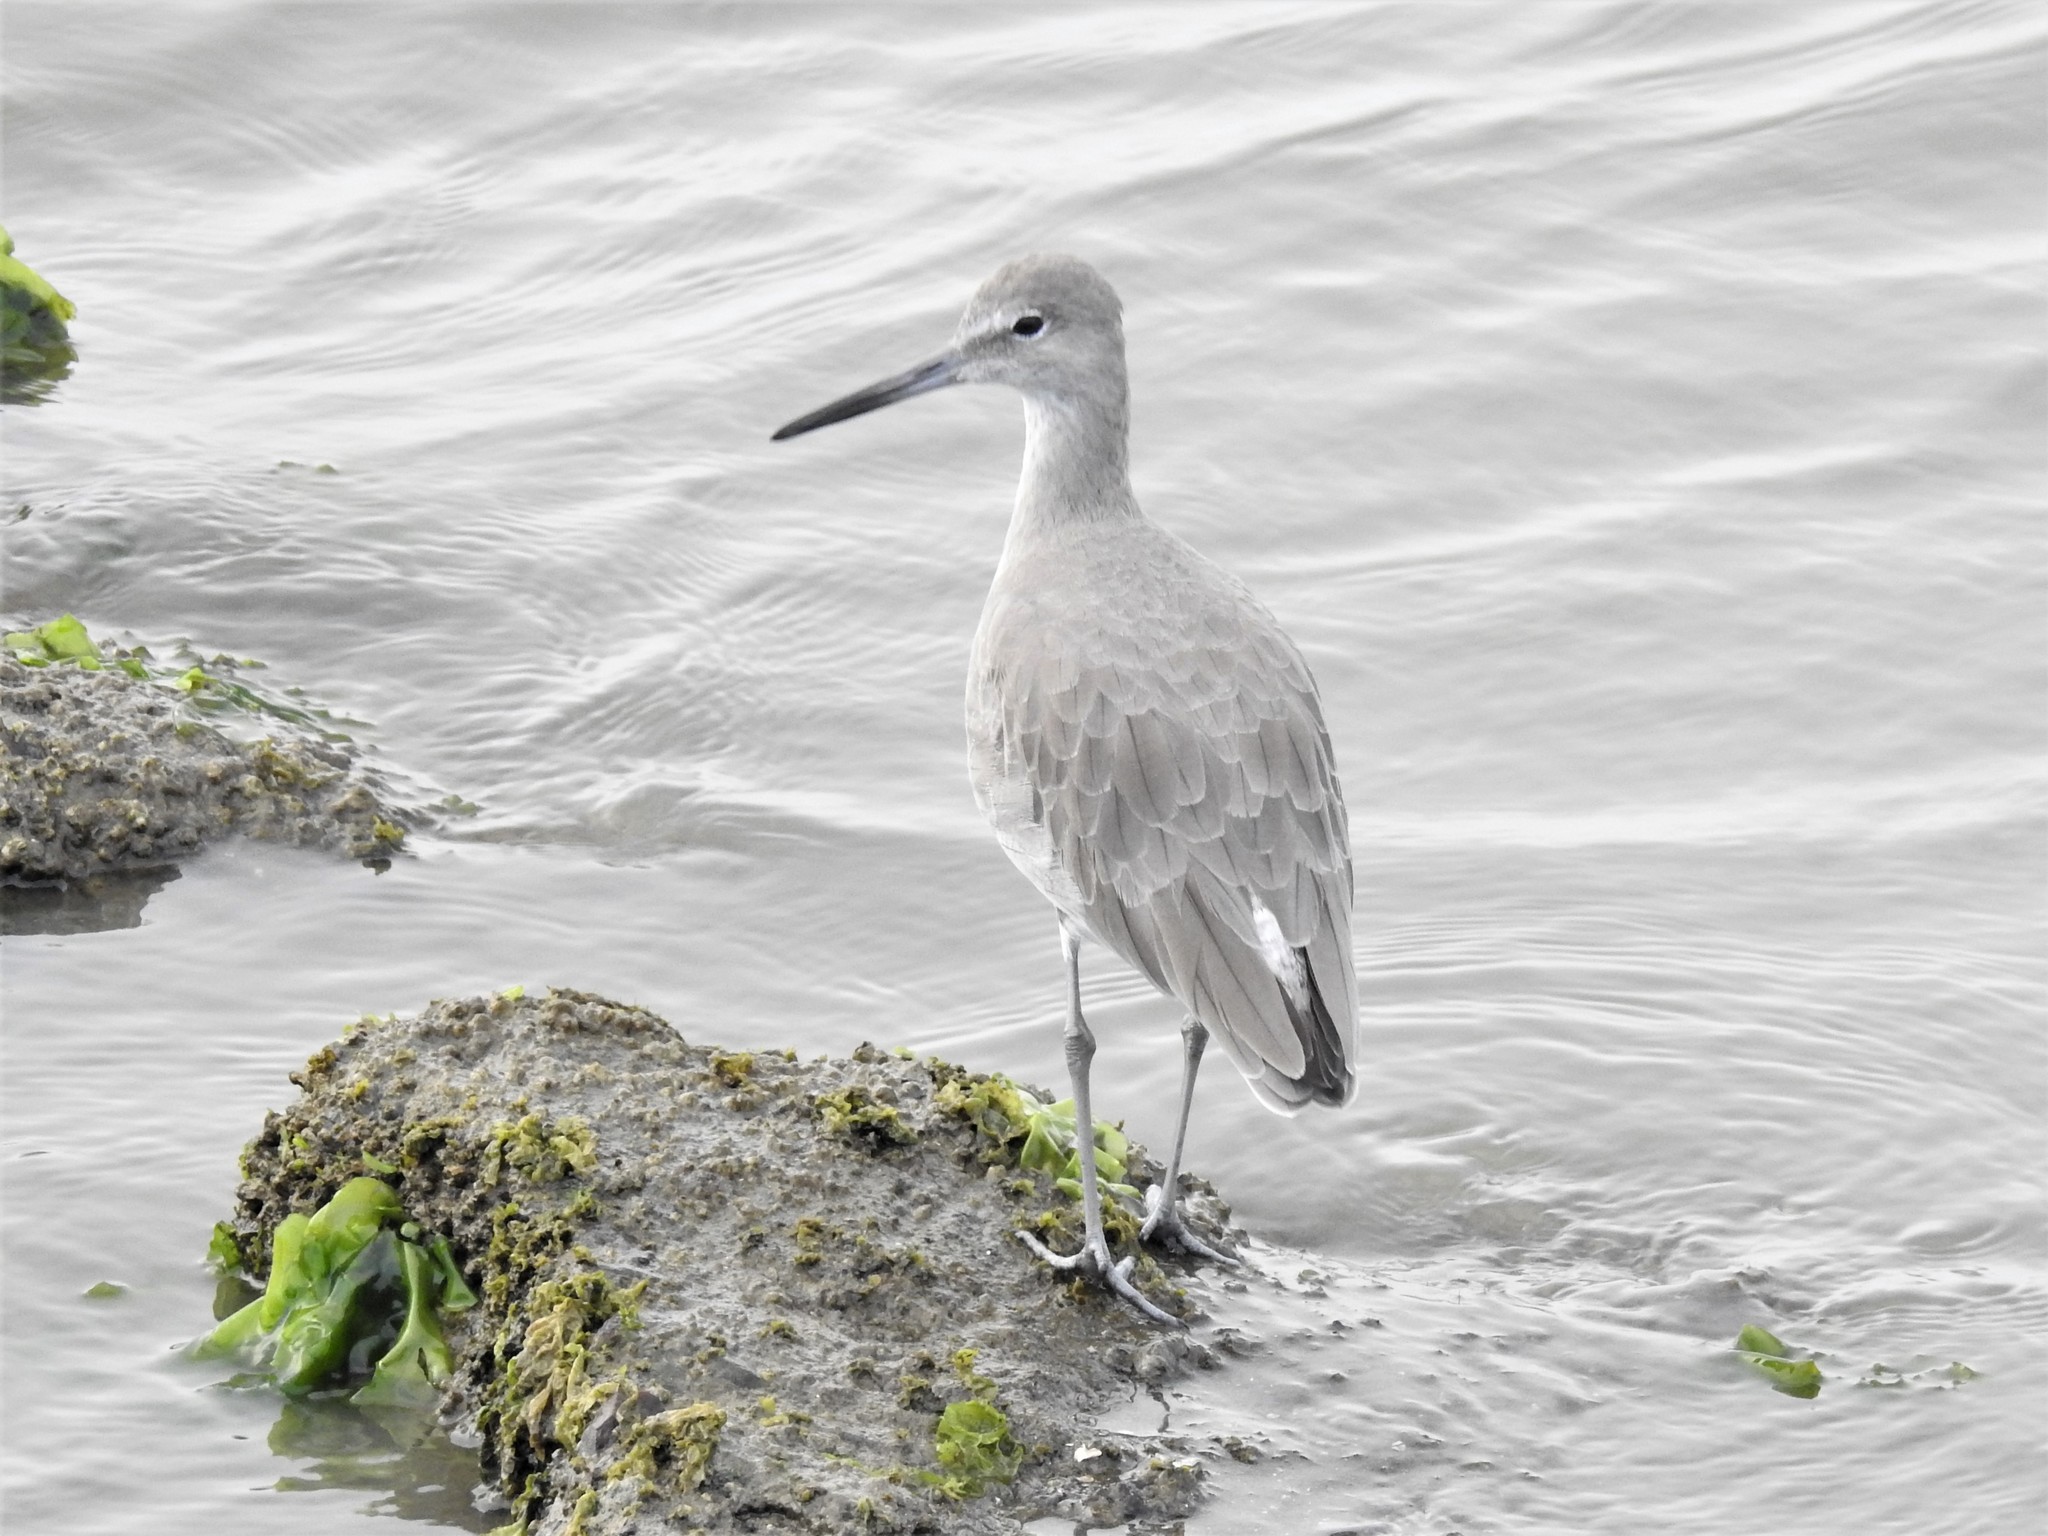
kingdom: Animalia
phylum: Chordata
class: Aves
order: Charadriiformes
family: Scolopacidae
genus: Tringa
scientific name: Tringa semipalmata
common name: Willet
